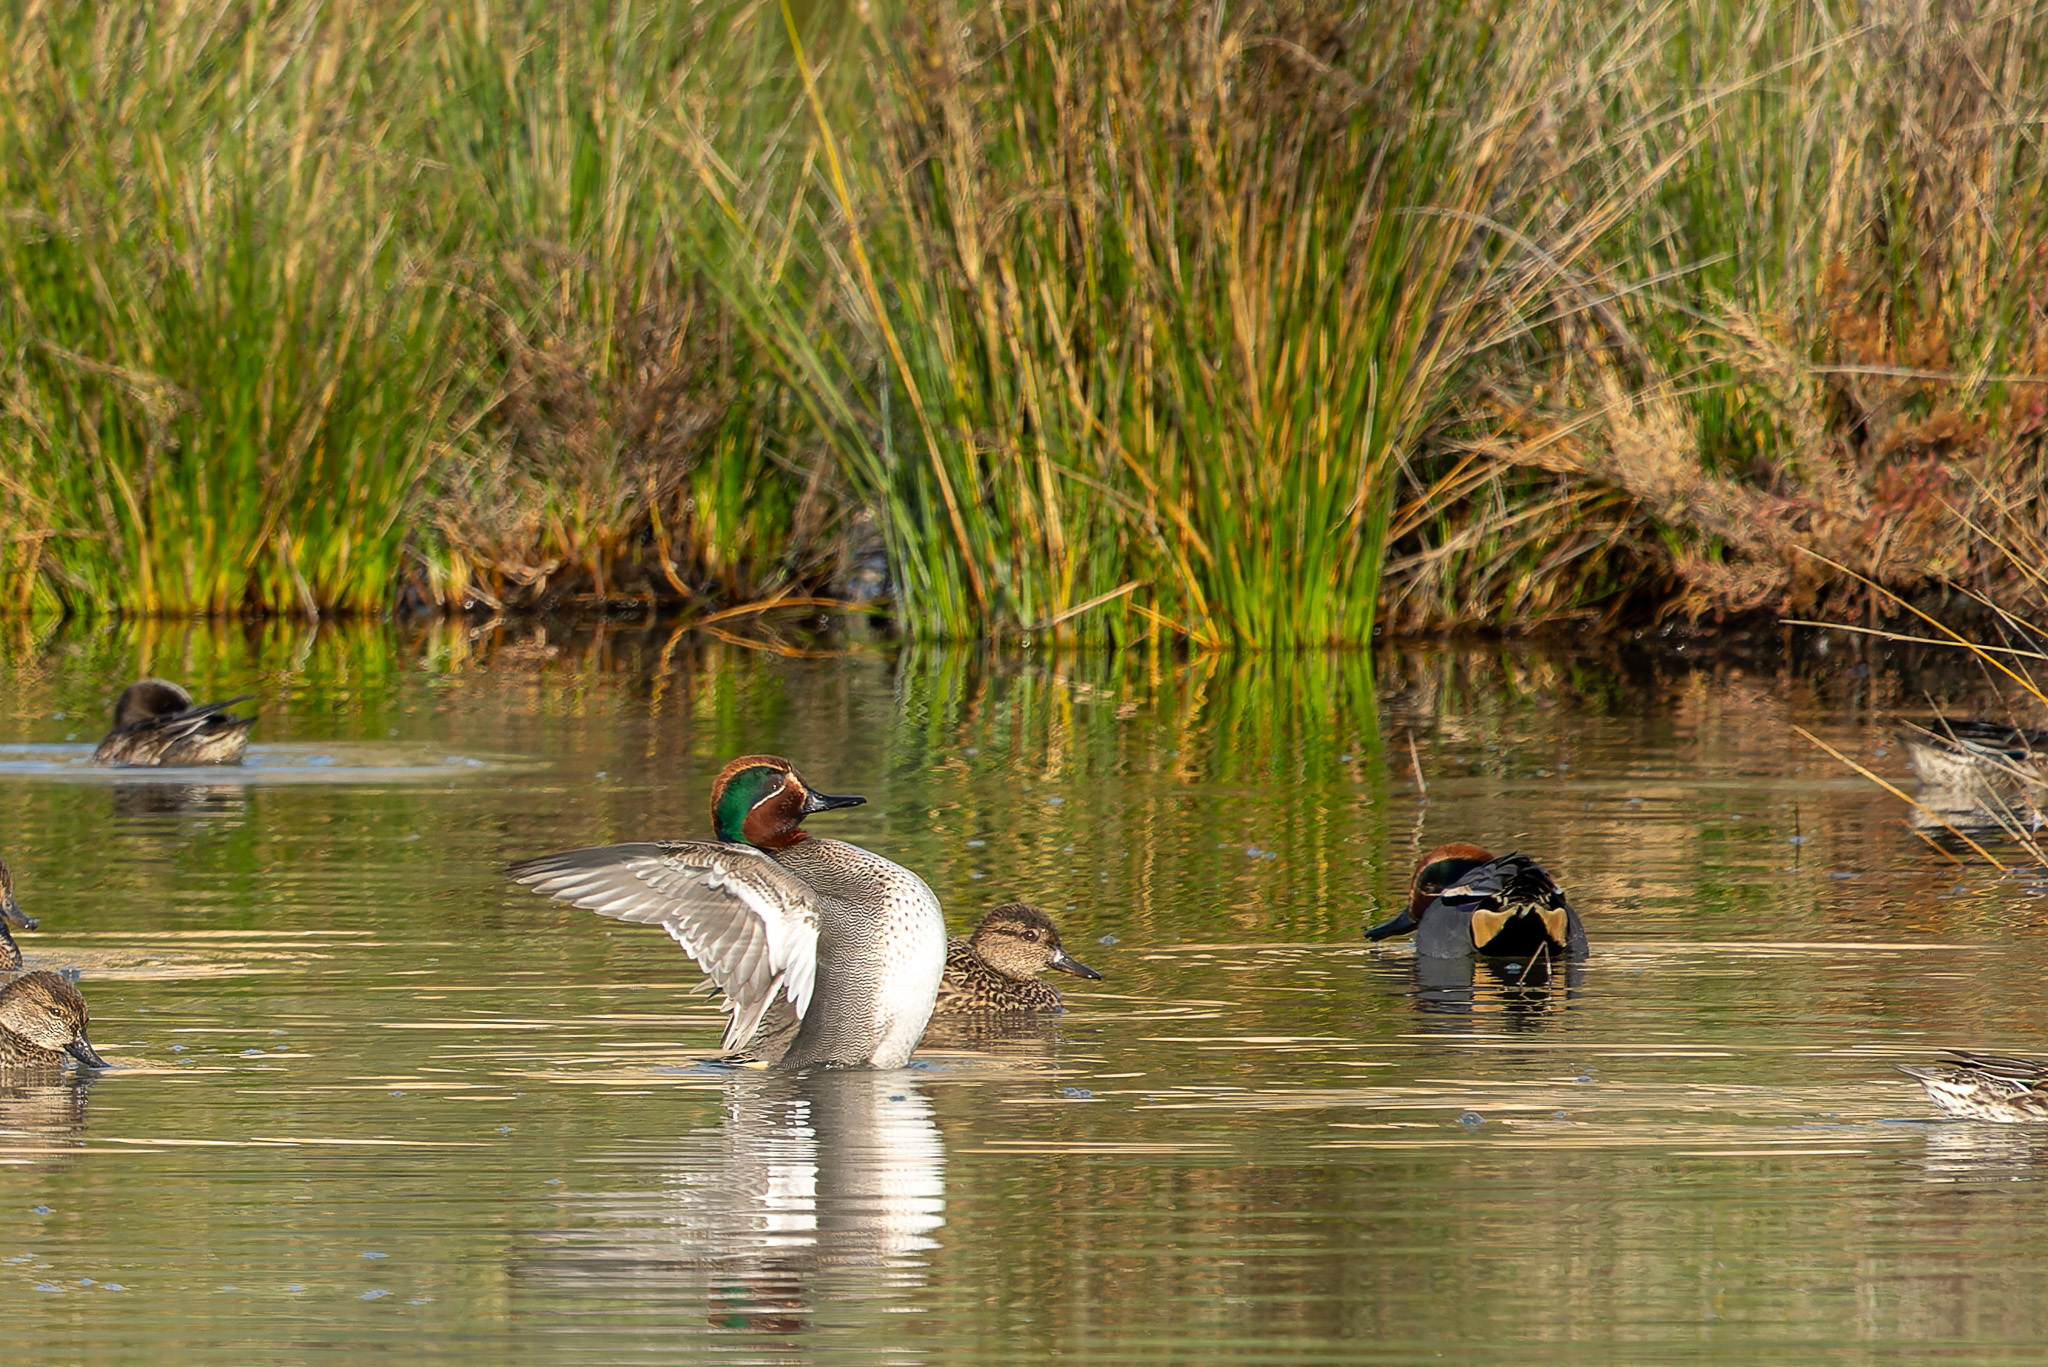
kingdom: Animalia
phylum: Chordata
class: Aves
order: Anseriformes
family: Anatidae
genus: Anas
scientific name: Anas crecca
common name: Eurasian teal
